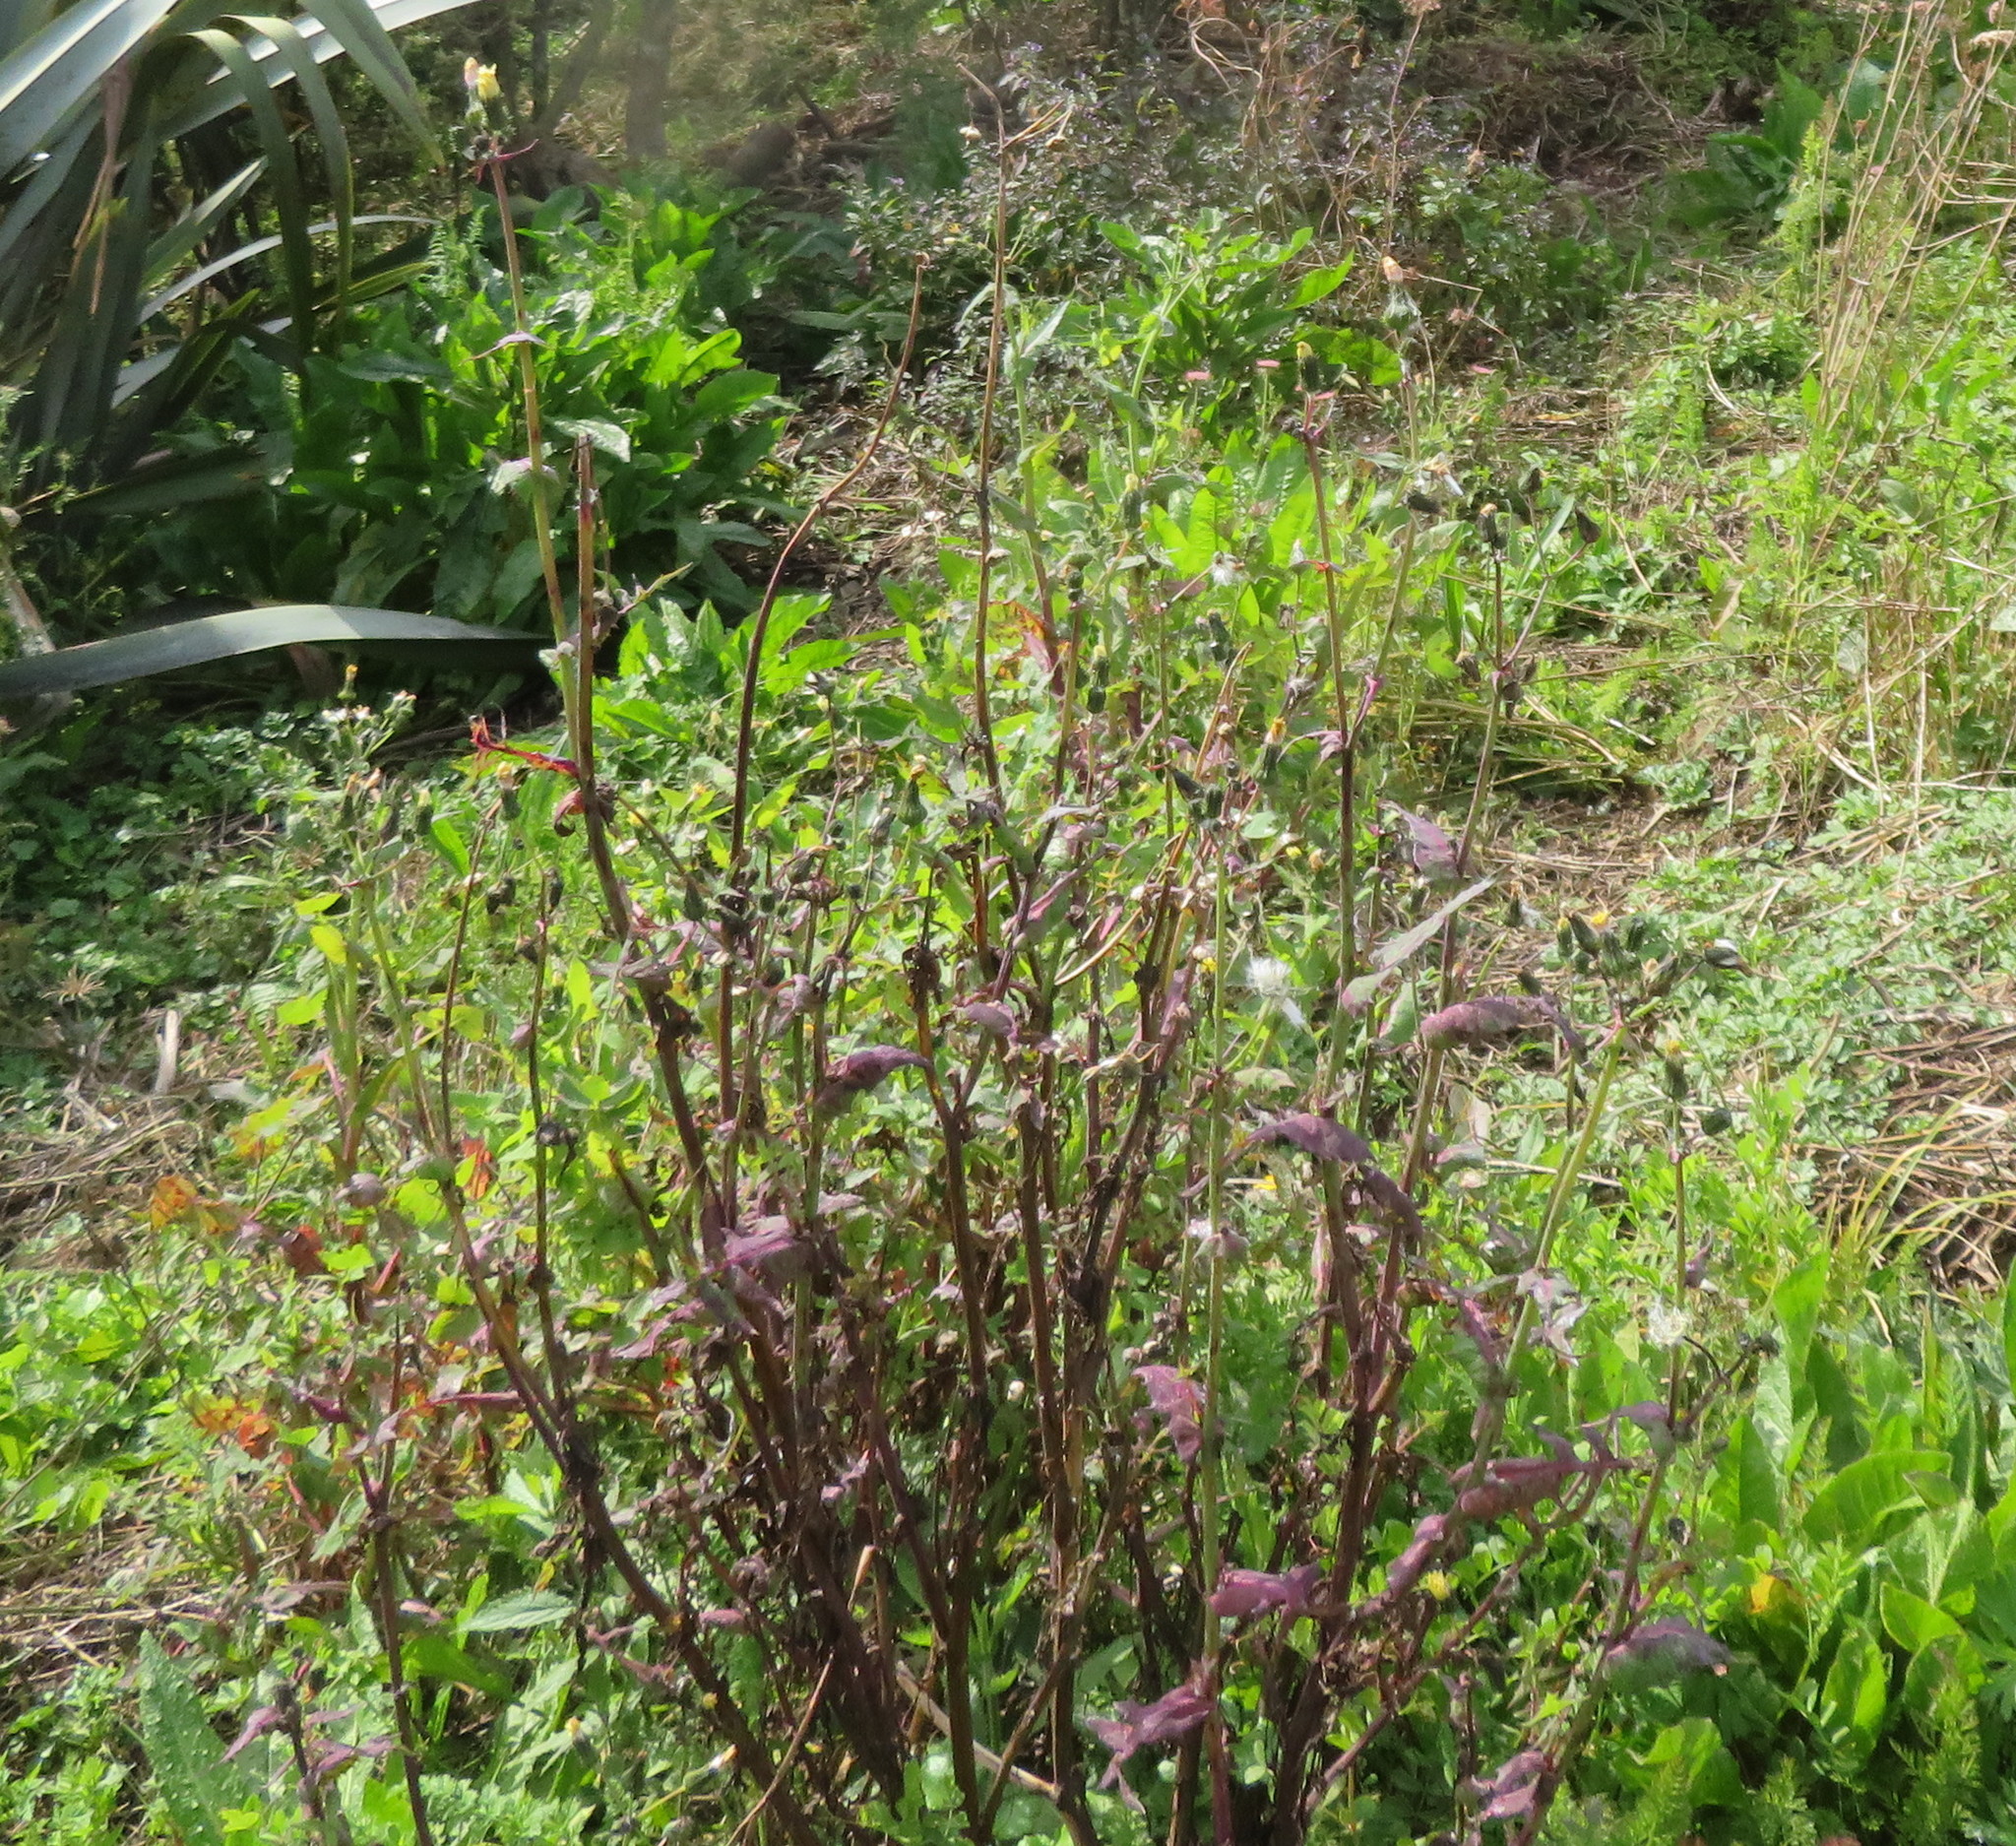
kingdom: Plantae
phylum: Tracheophyta
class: Magnoliopsida
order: Asterales
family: Asteraceae
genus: Sonchus
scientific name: Sonchus oleraceus
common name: Common sowthistle
